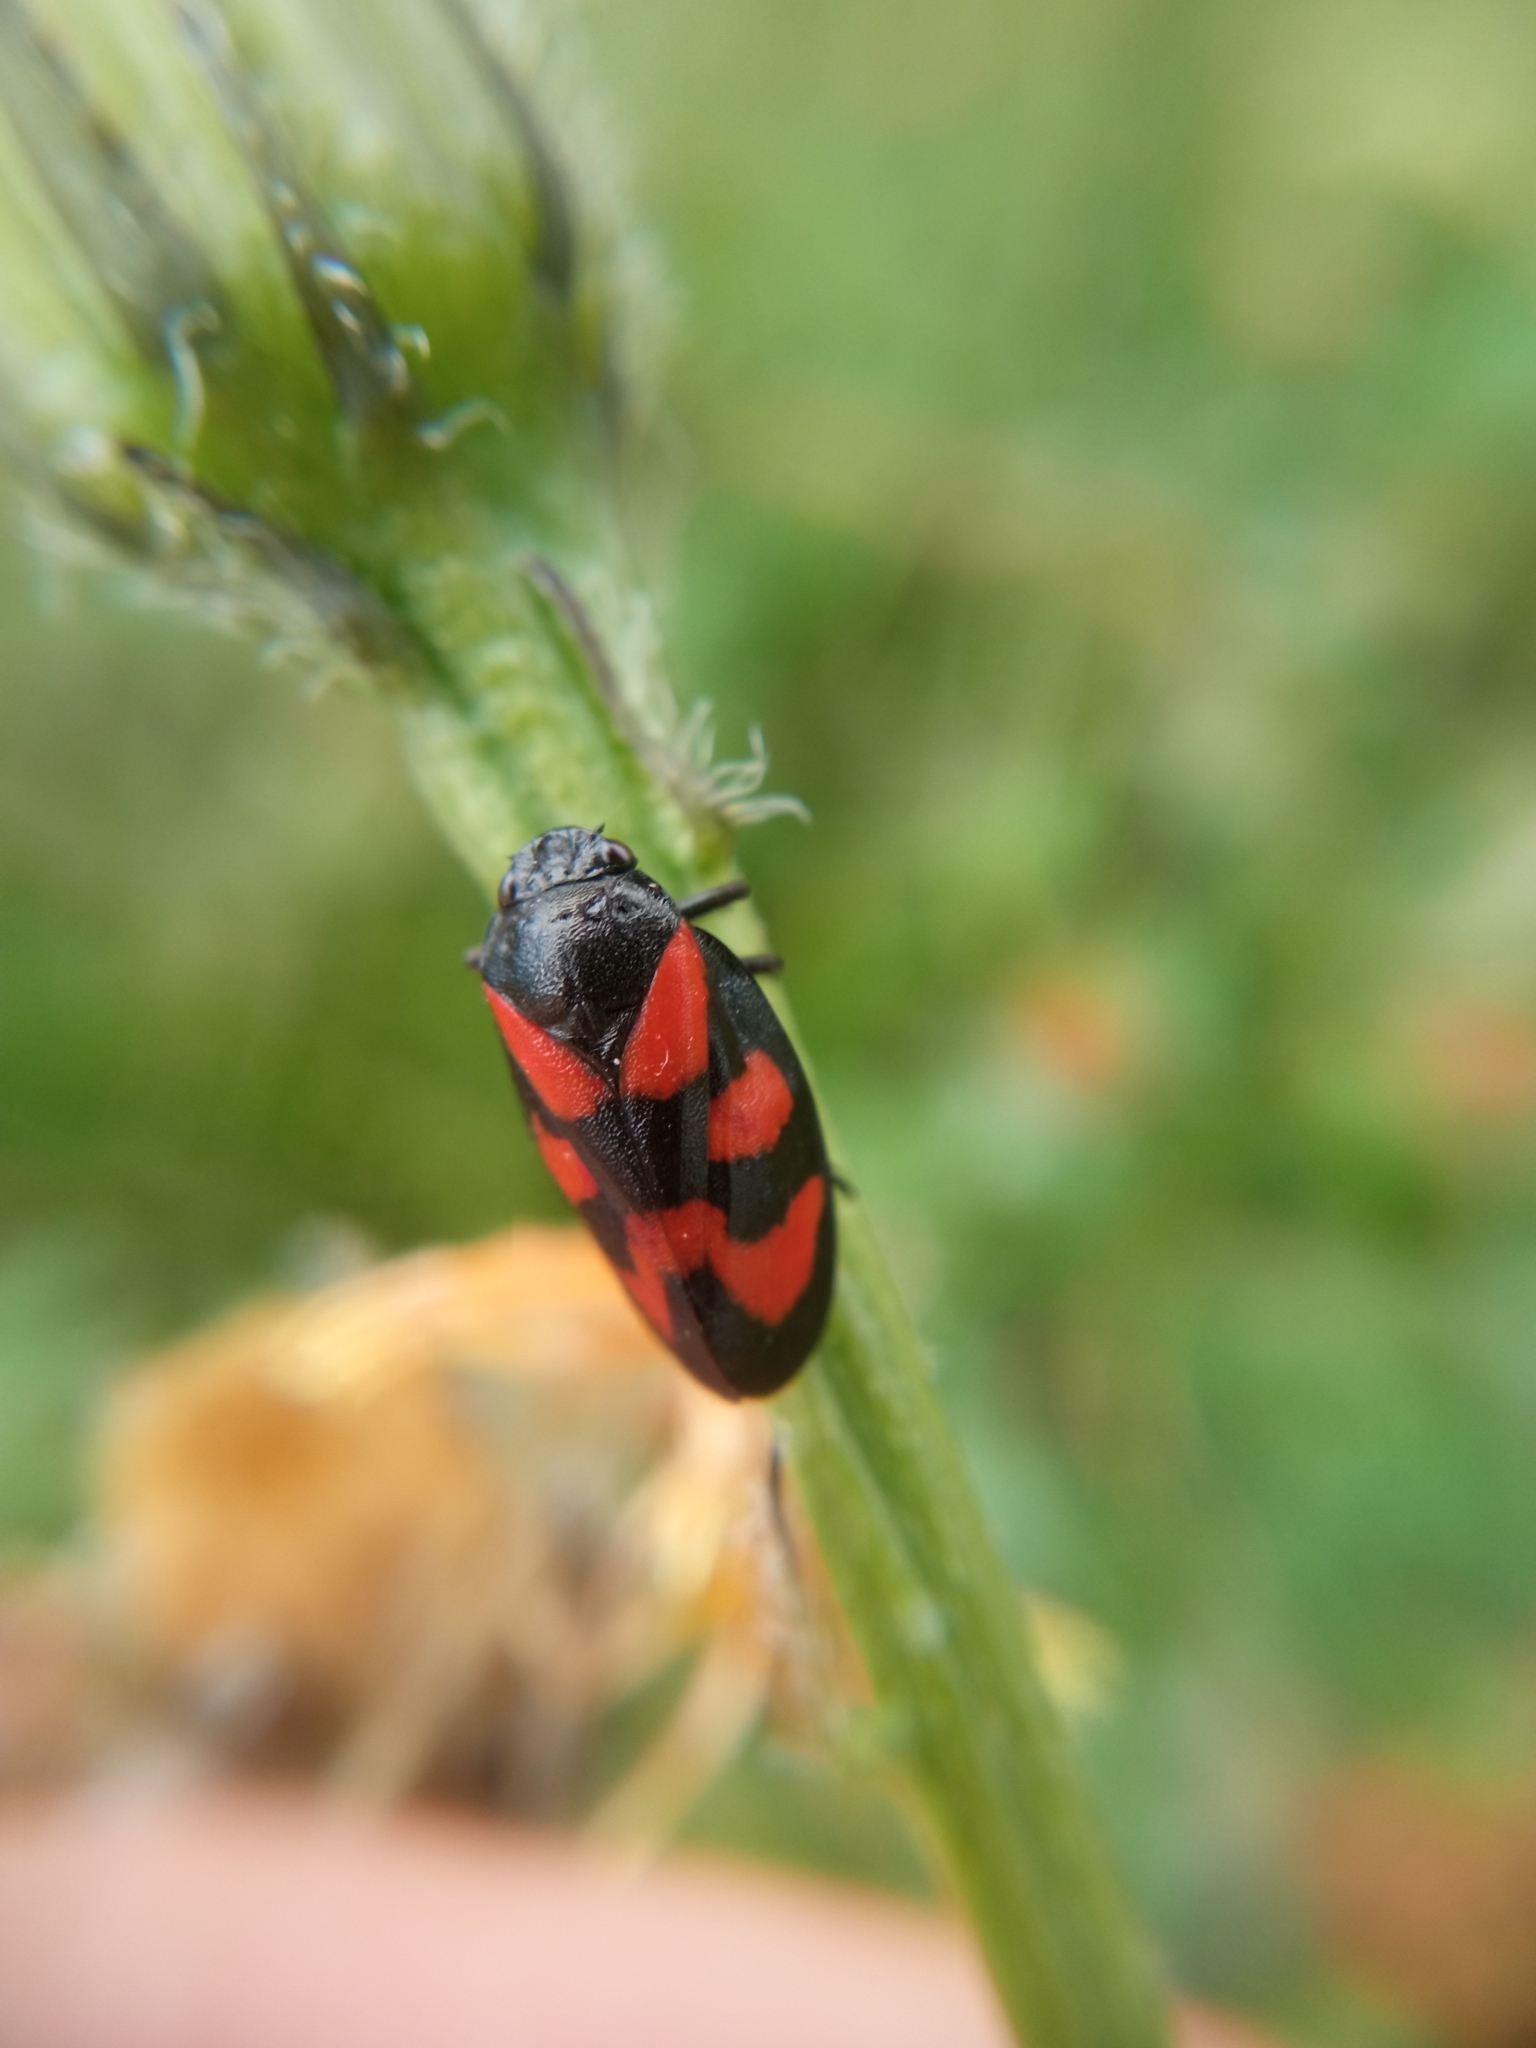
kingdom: Animalia
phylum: Arthropoda
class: Insecta
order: Hemiptera
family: Cercopidae
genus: Cercopis
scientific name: Cercopis vulnerata
